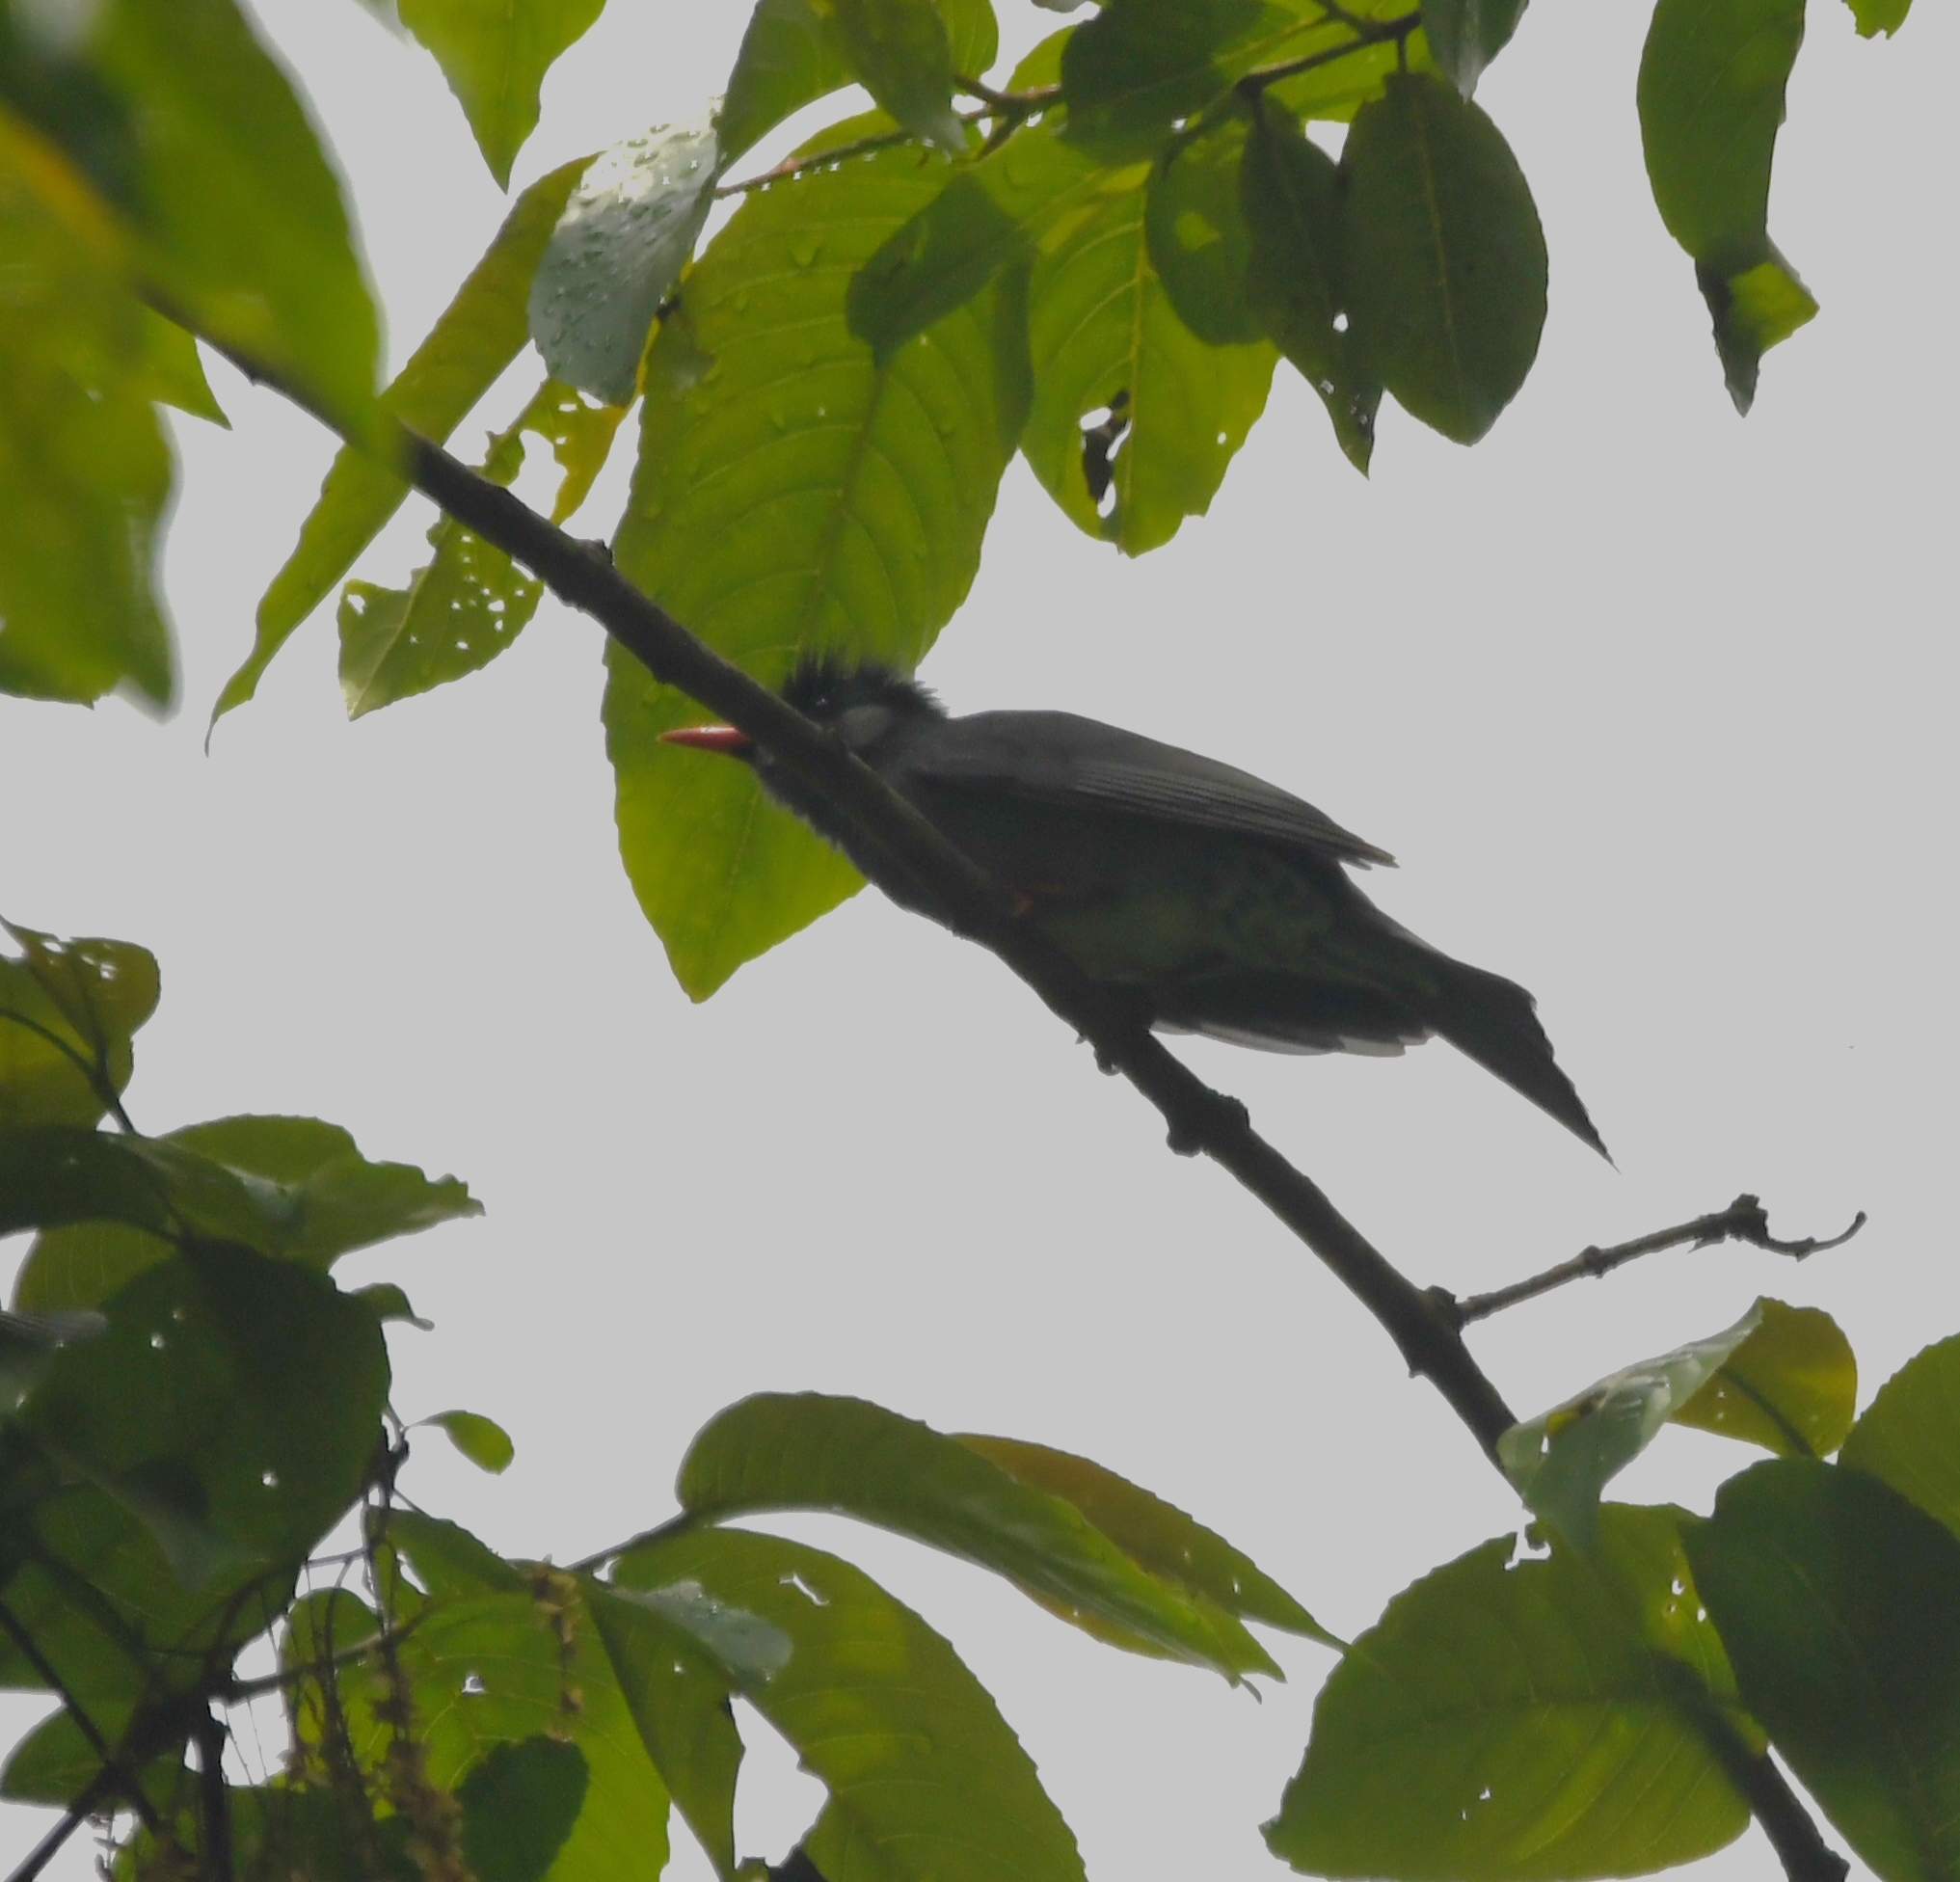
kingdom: Animalia
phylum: Chordata
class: Aves
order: Passeriformes
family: Pycnonotidae
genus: Hypsipetes
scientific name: Hypsipetes leucocephalus
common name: Black bulbul
